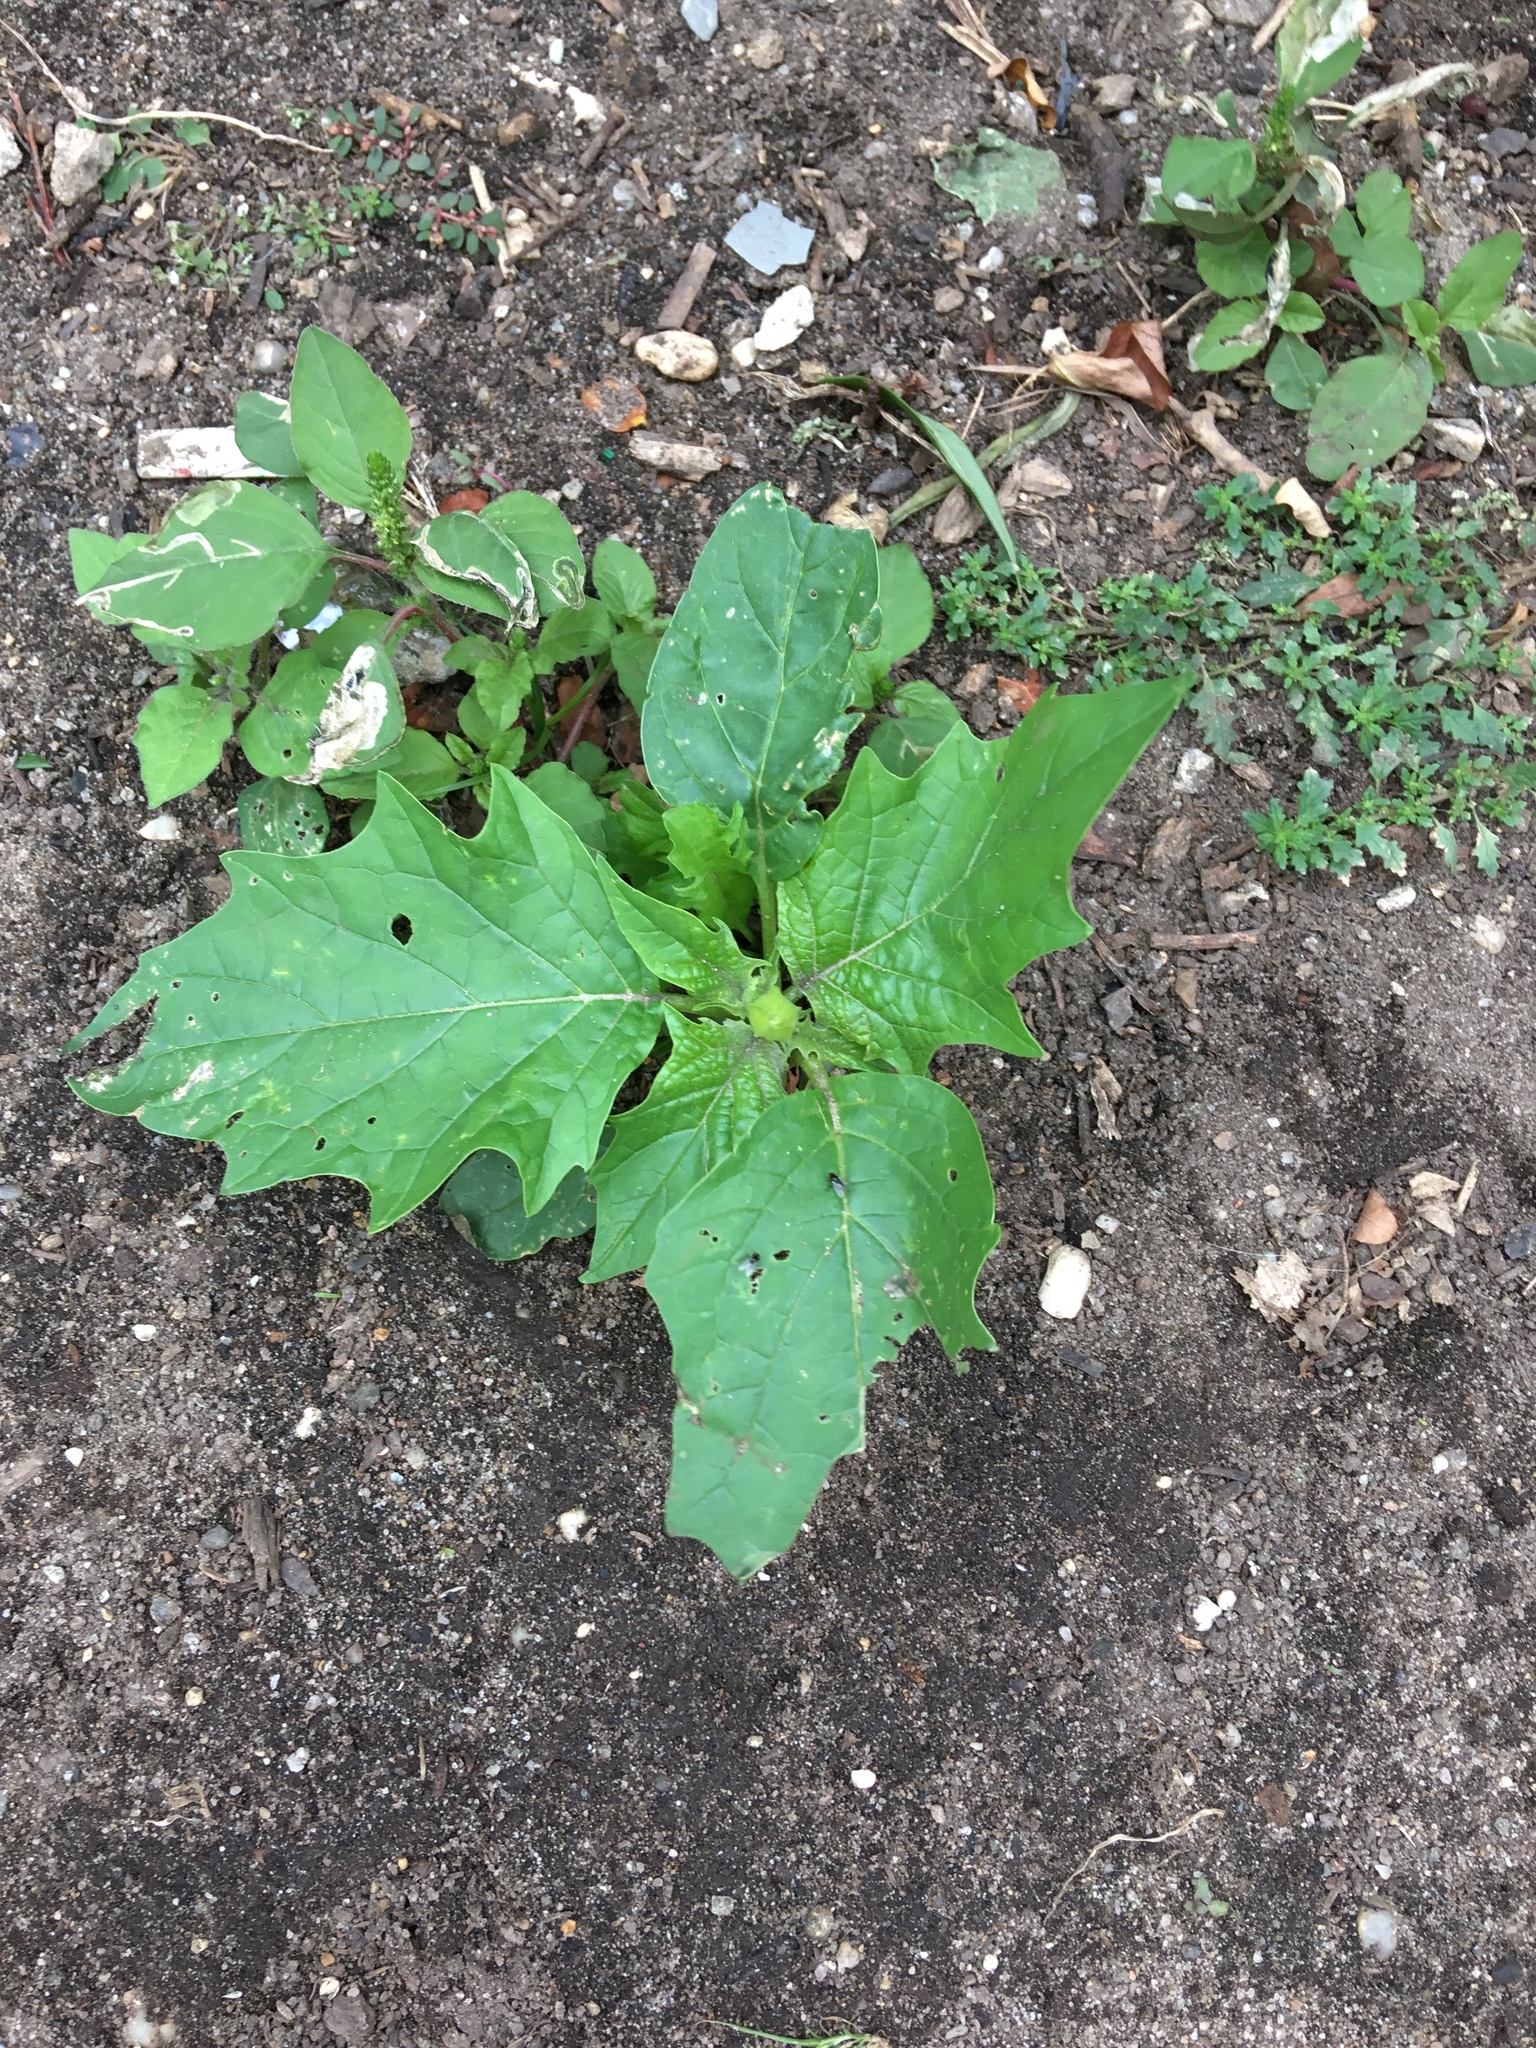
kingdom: Plantae
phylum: Tracheophyta
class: Magnoliopsida
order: Solanales
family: Solanaceae
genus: Datura
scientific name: Datura stramonium
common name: Thorn-apple
